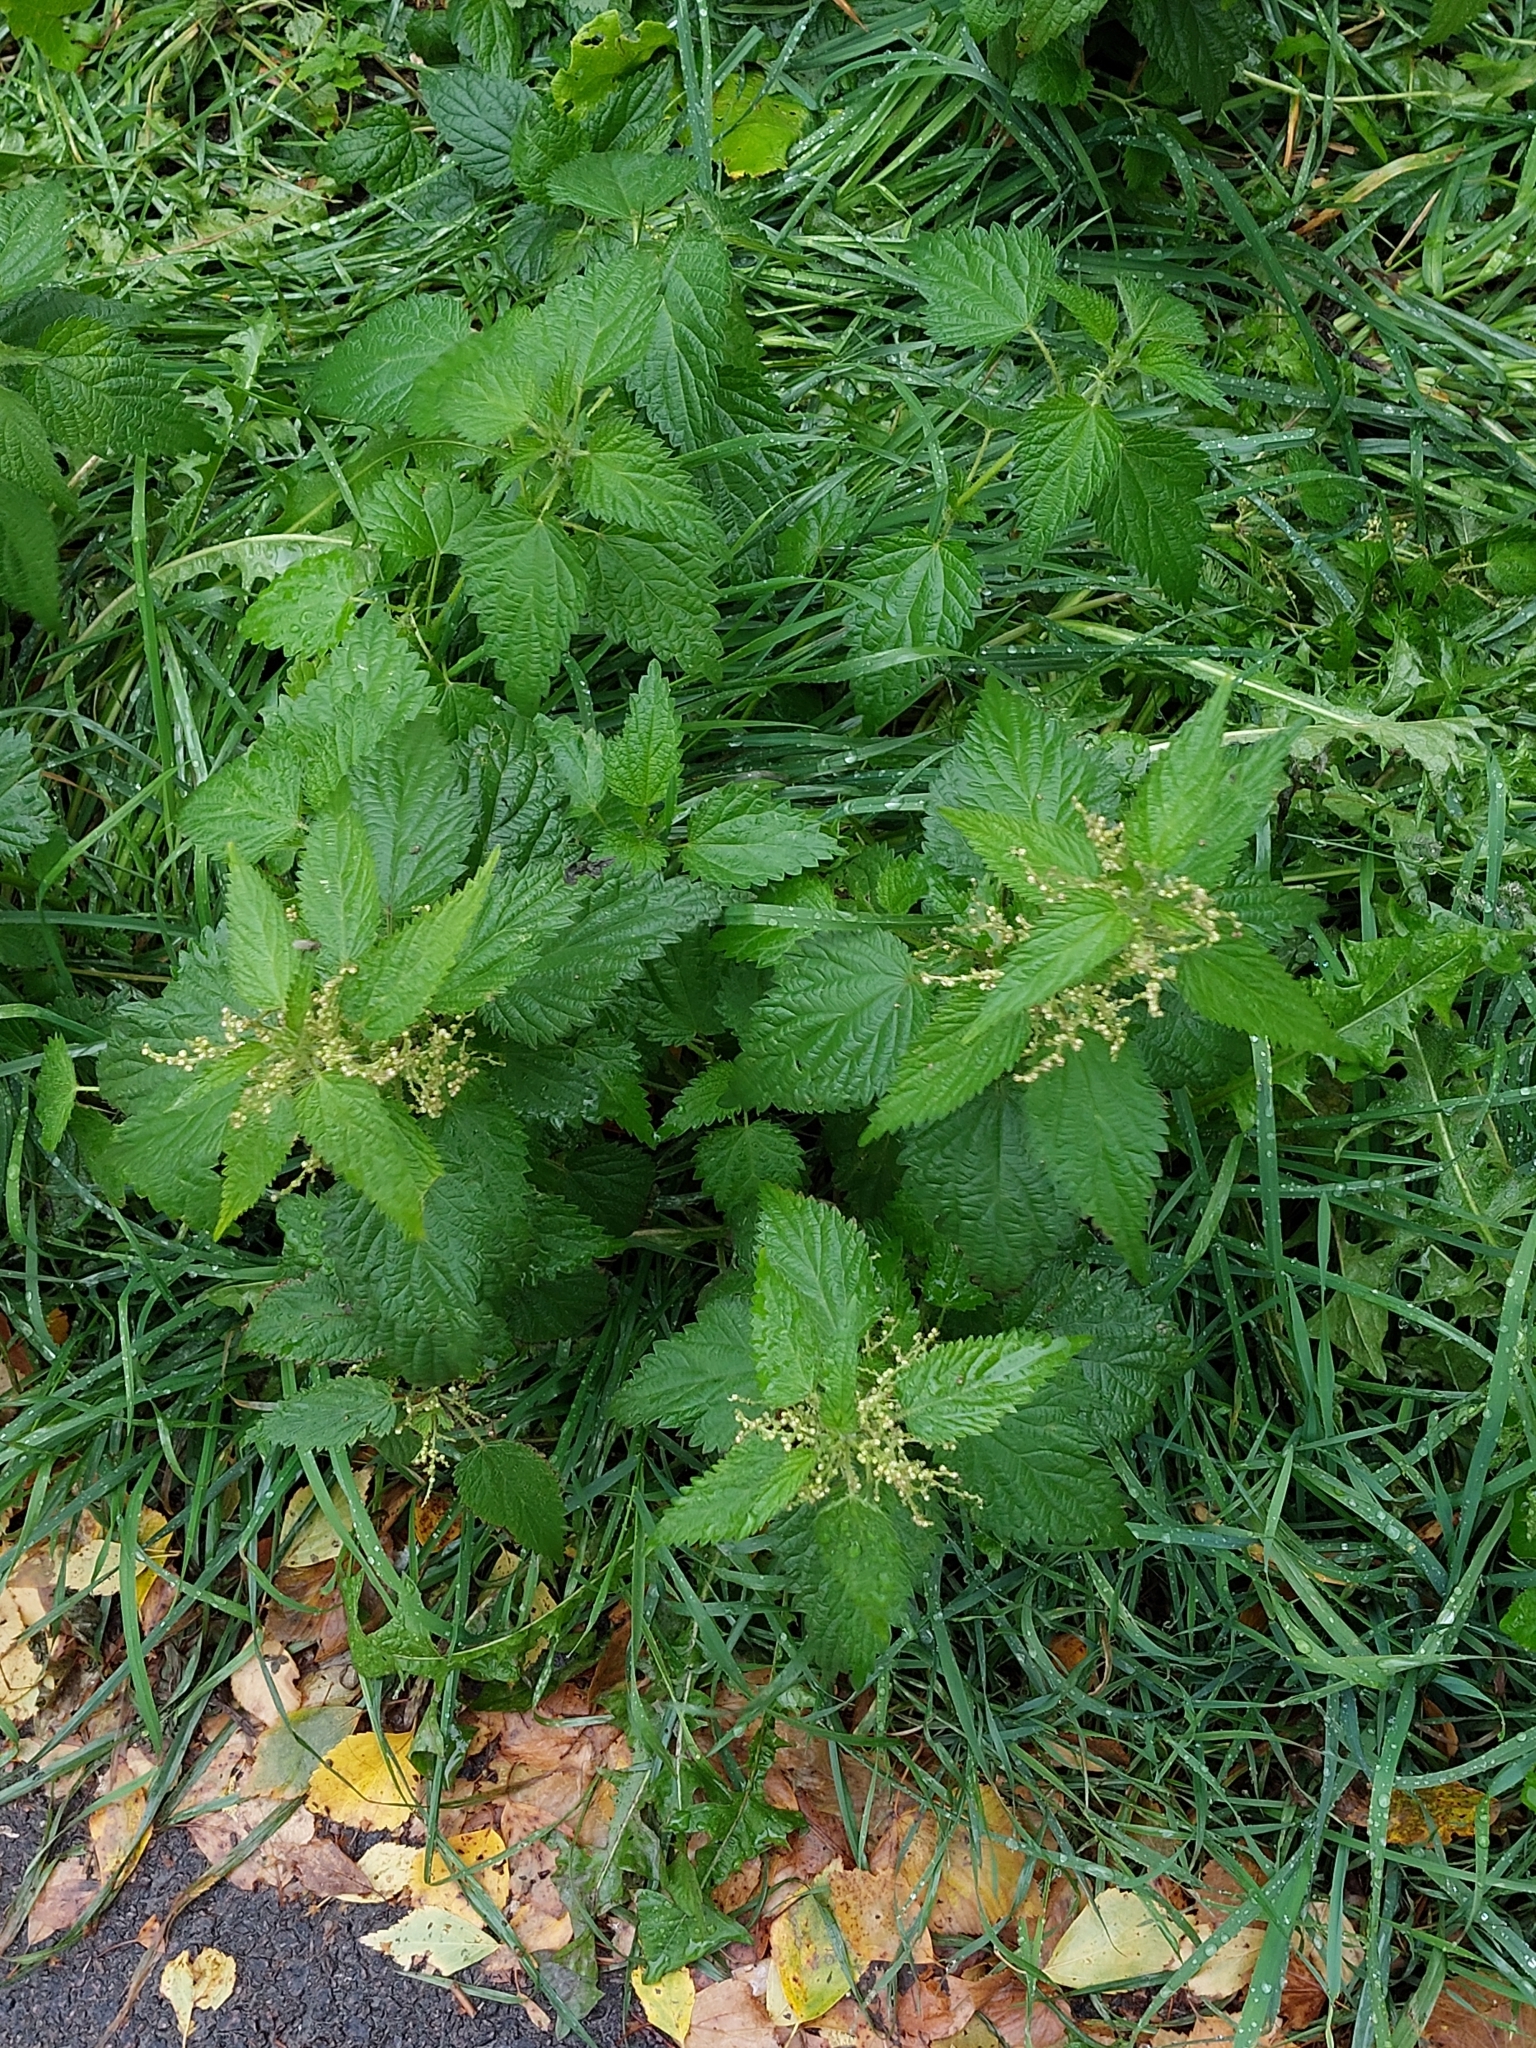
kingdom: Plantae
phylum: Tracheophyta
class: Magnoliopsida
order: Rosales
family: Urticaceae
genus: Urtica
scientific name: Urtica dioica
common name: Common nettle
